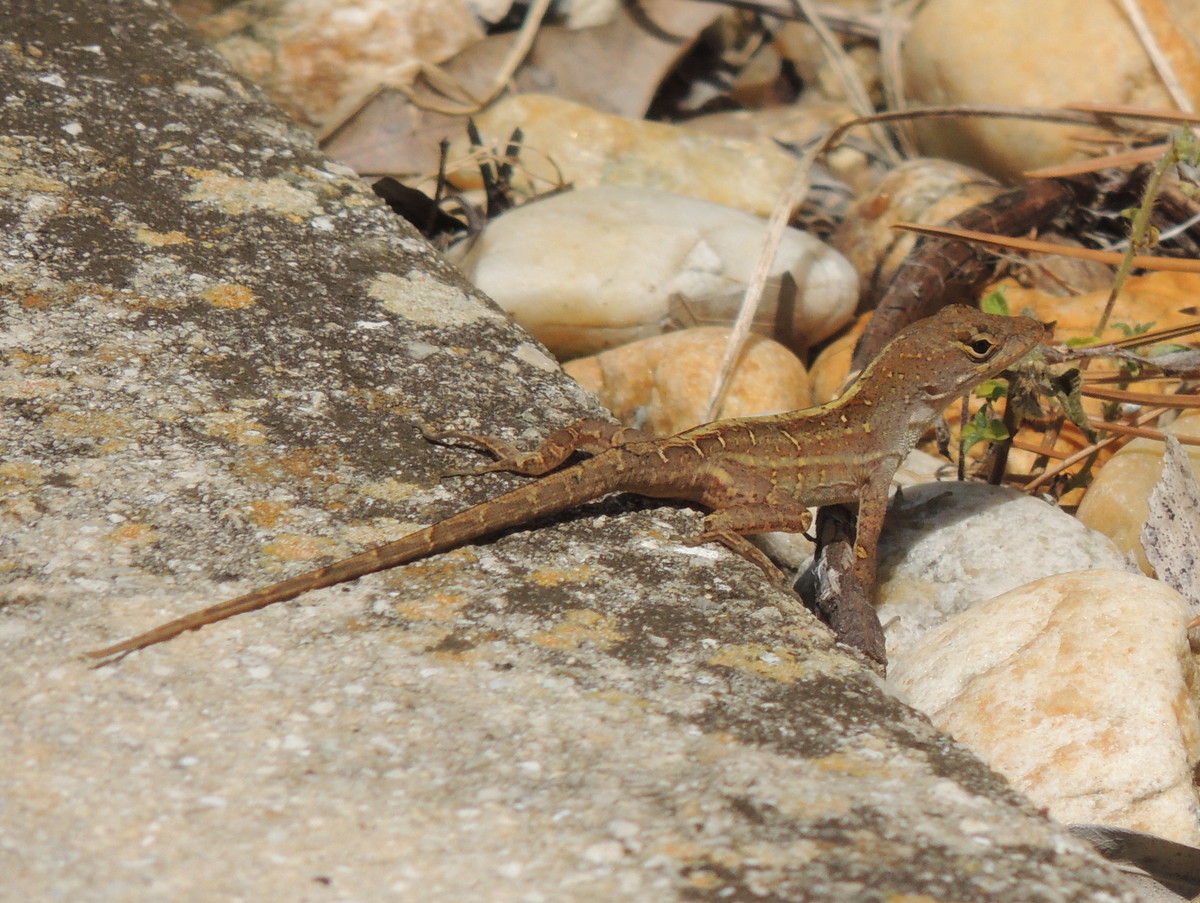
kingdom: Animalia
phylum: Chordata
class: Squamata
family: Dactyloidae
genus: Anolis
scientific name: Anolis sagrei
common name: Brown anole
